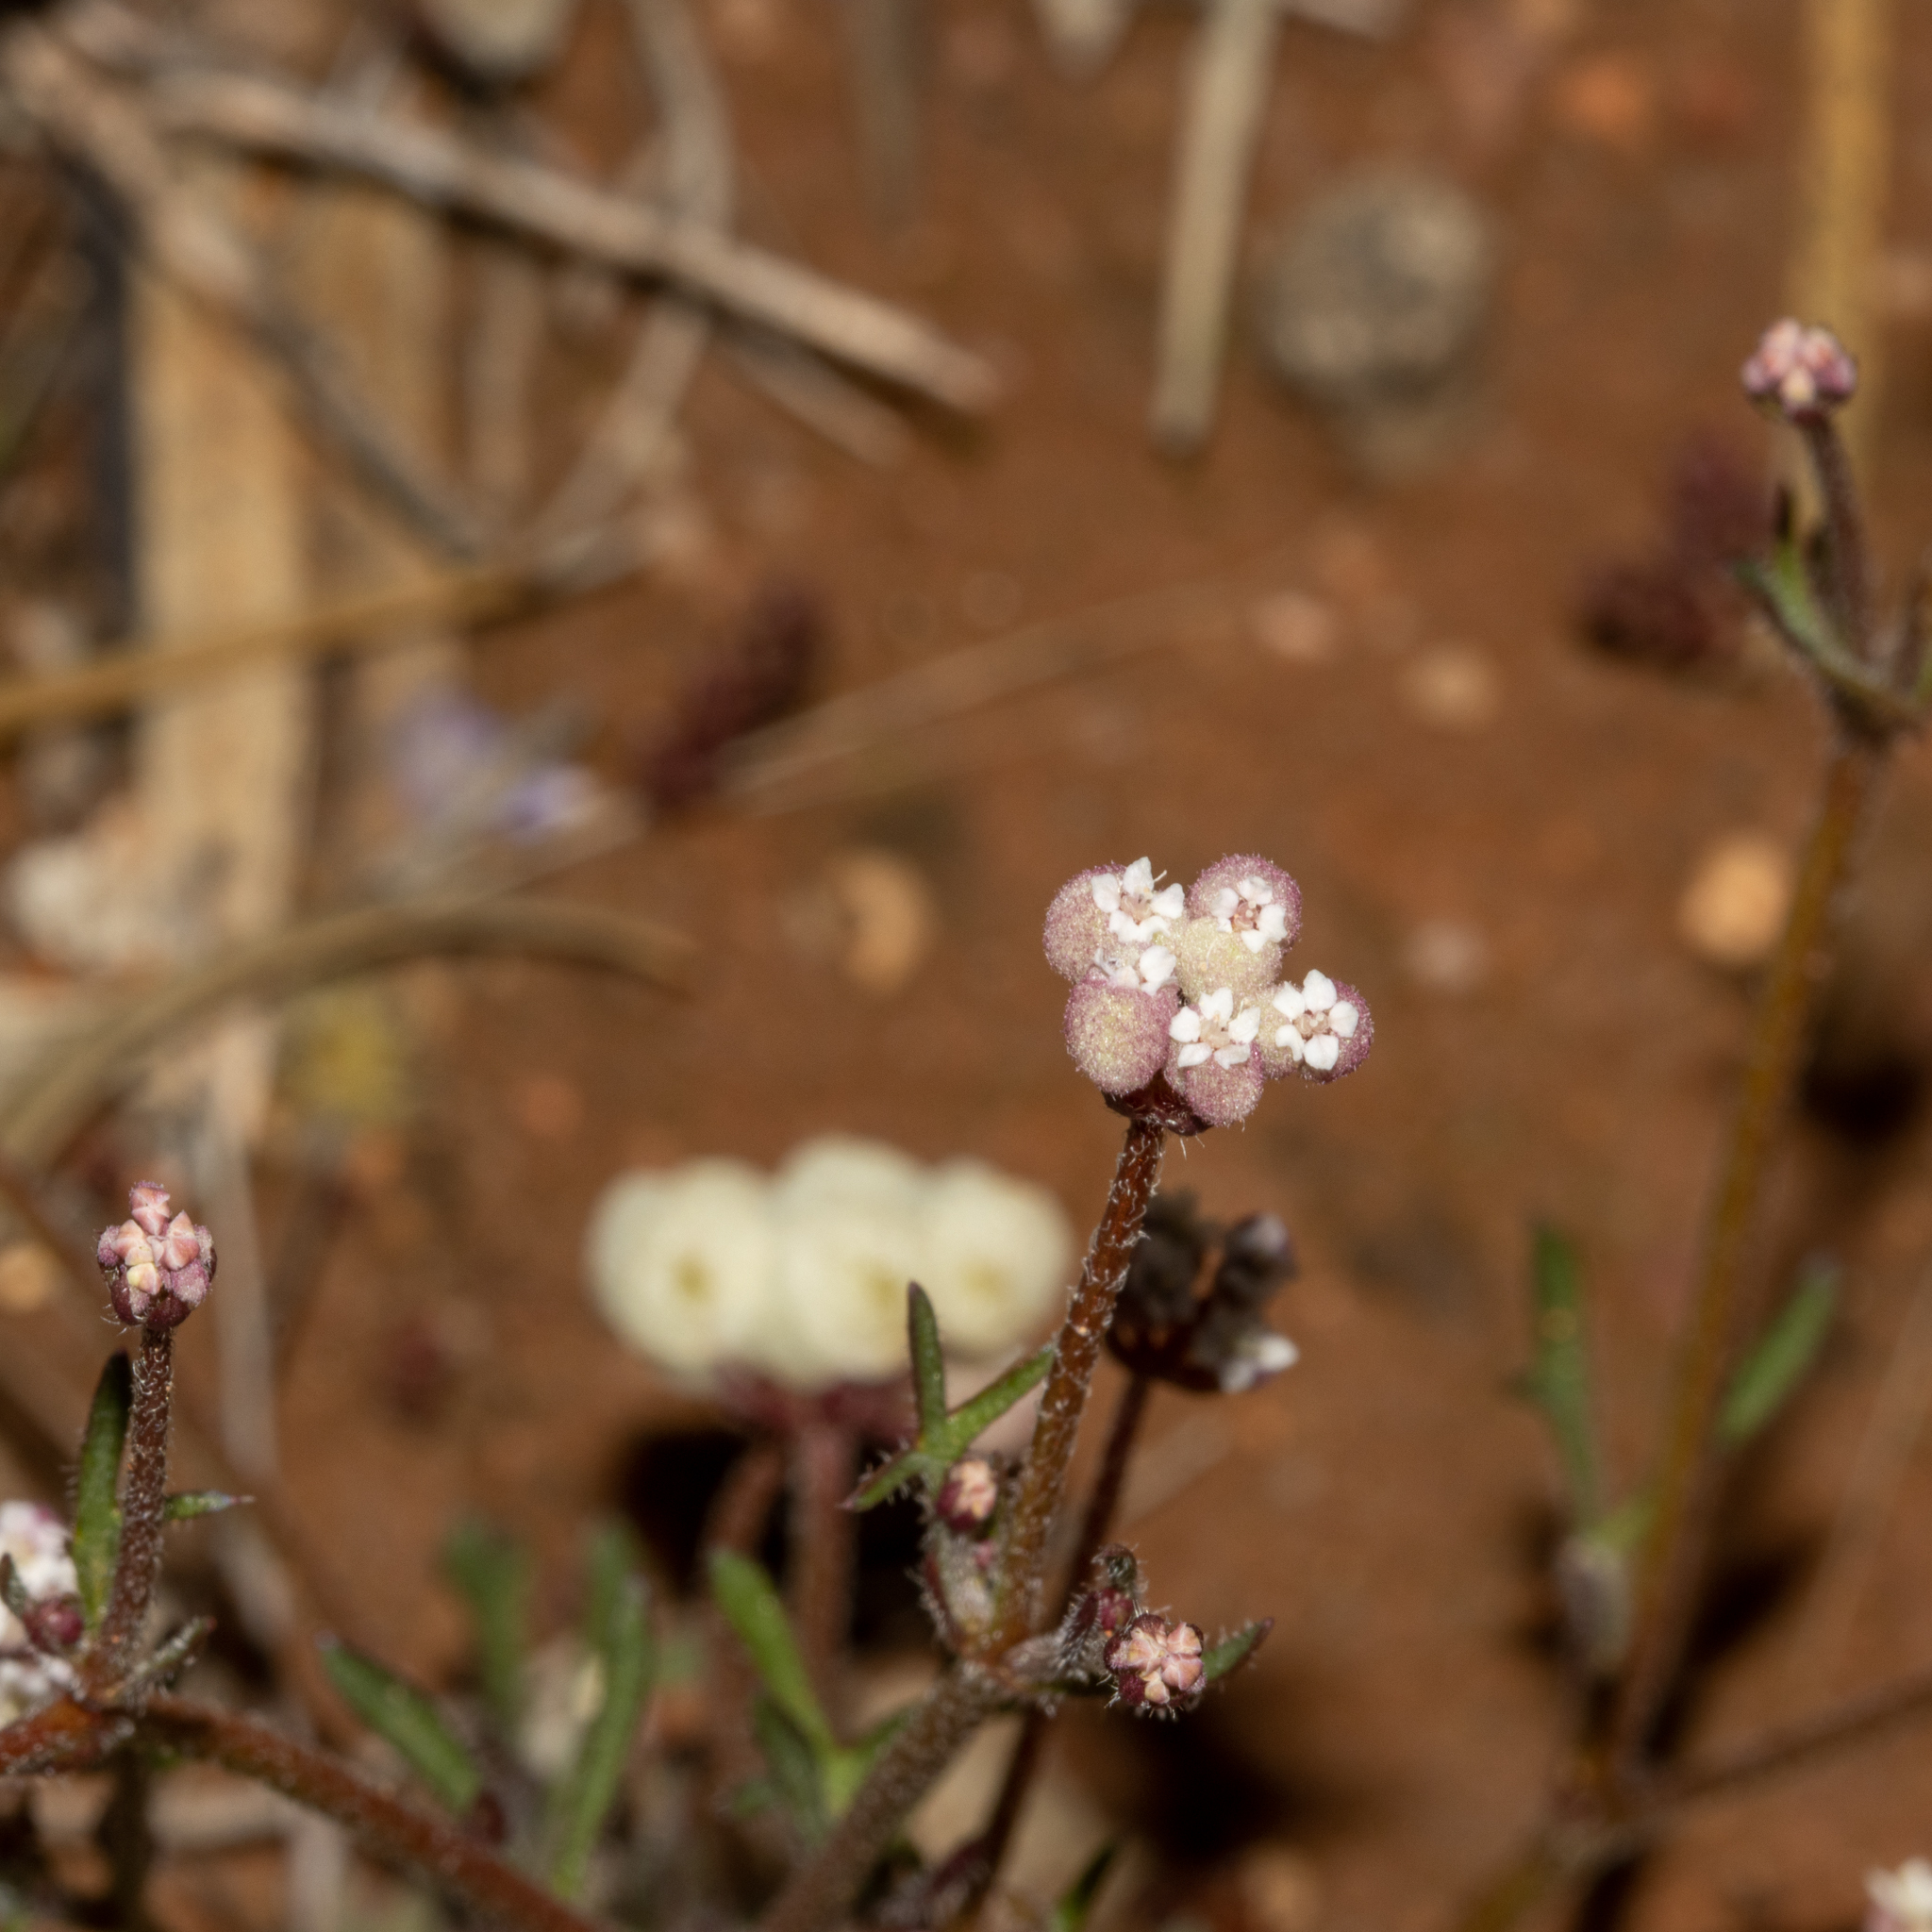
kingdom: Plantae
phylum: Tracheophyta
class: Magnoliopsida
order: Apiales
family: Araliaceae
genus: Trachymene
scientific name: Trachymene ornata
